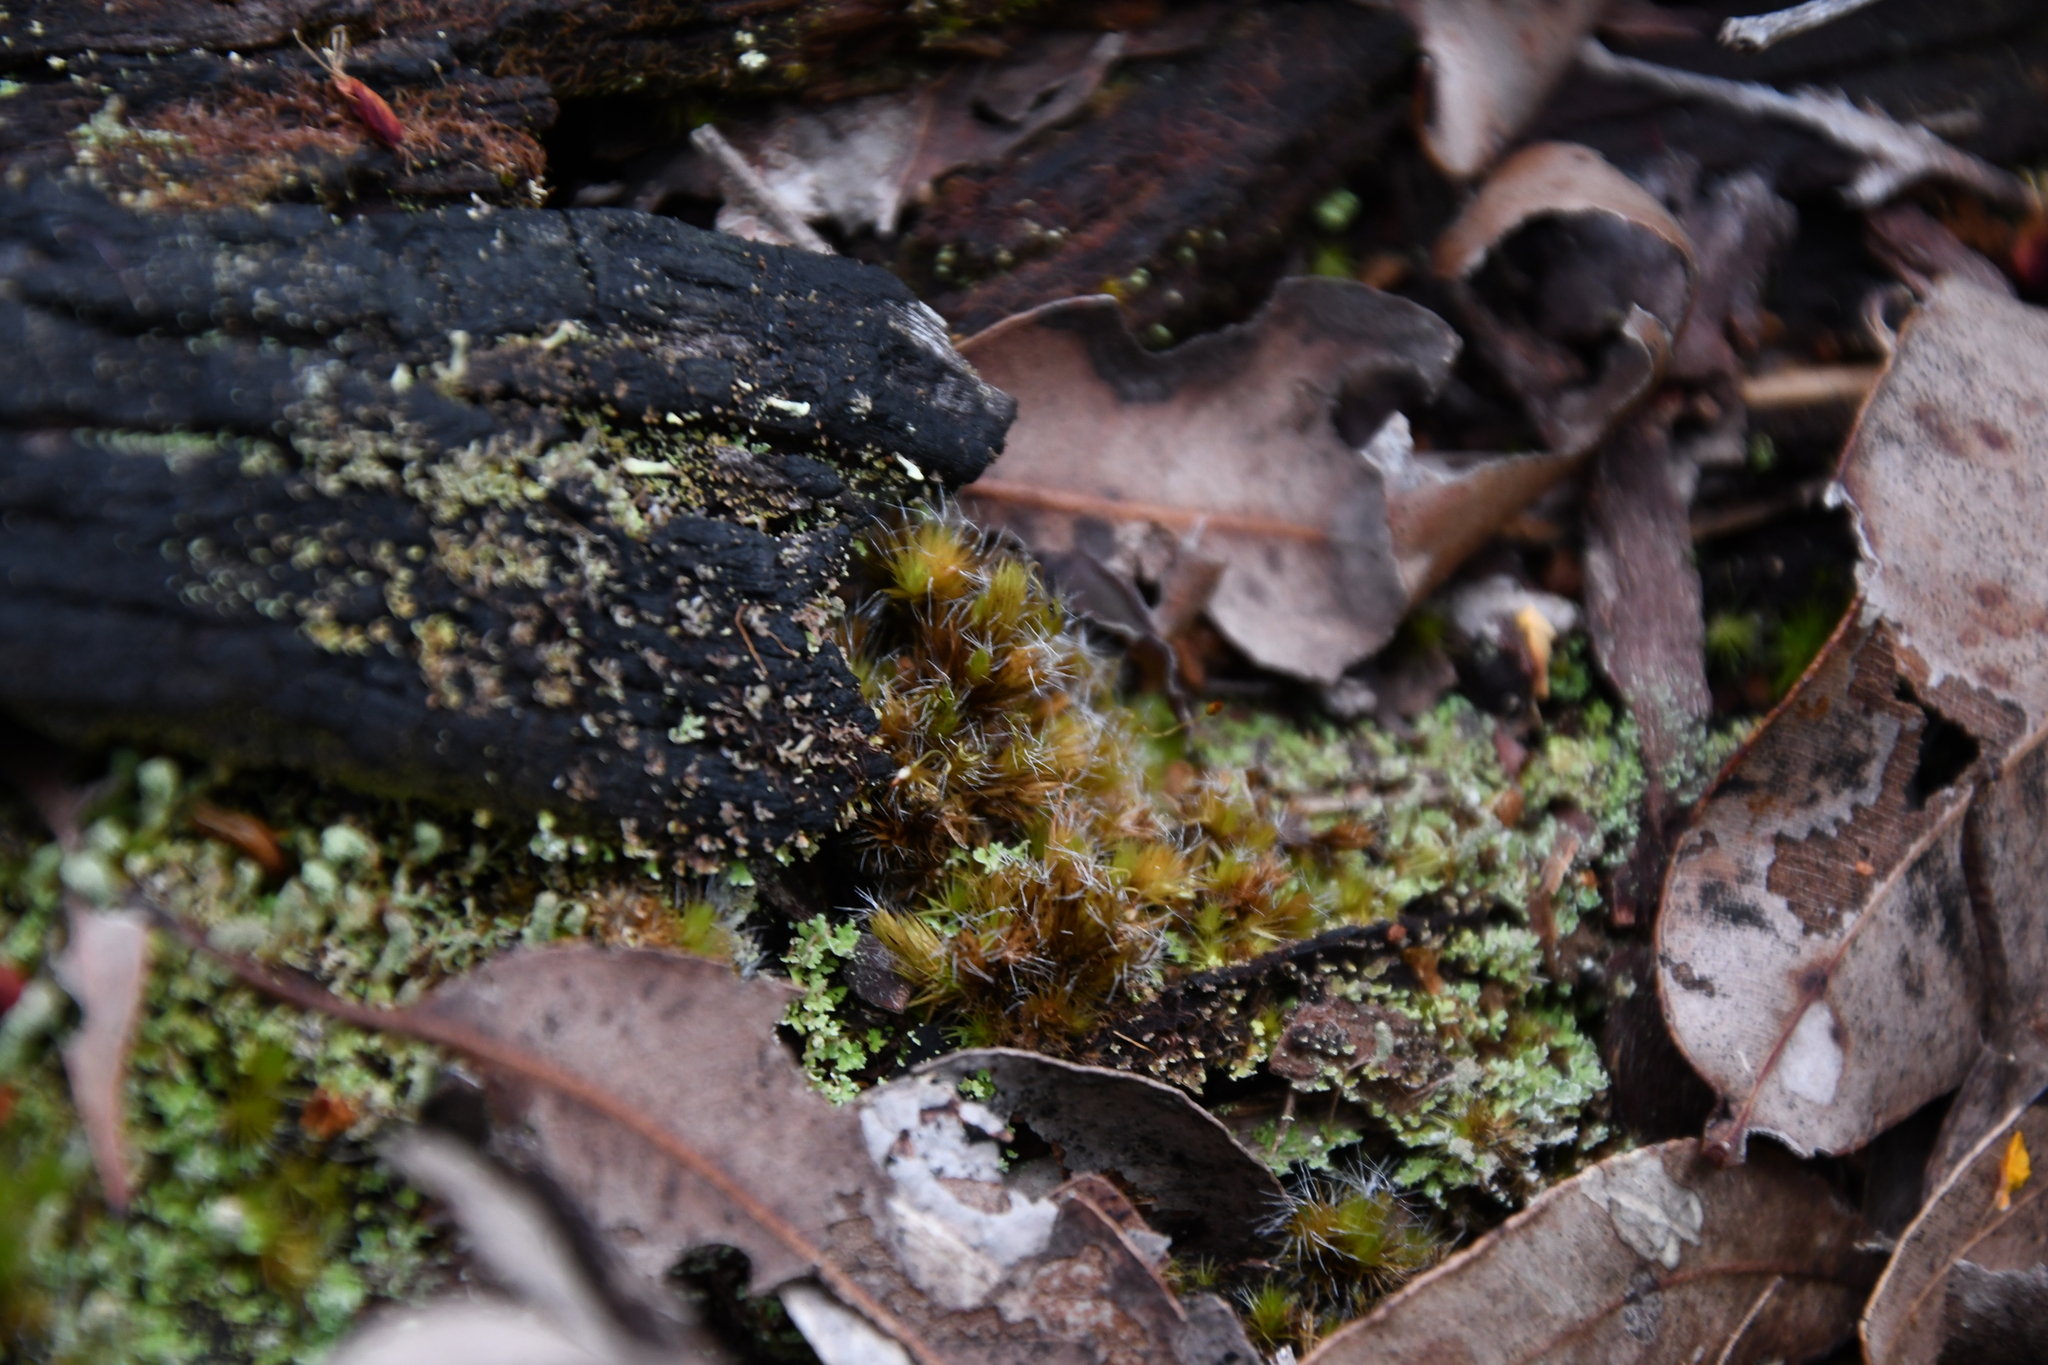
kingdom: Plantae
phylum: Bryophyta
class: Bryopsida
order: Dicranales
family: Leucobryaceae
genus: Campylopus
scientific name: Campylopus introflexus
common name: Heath star moss
